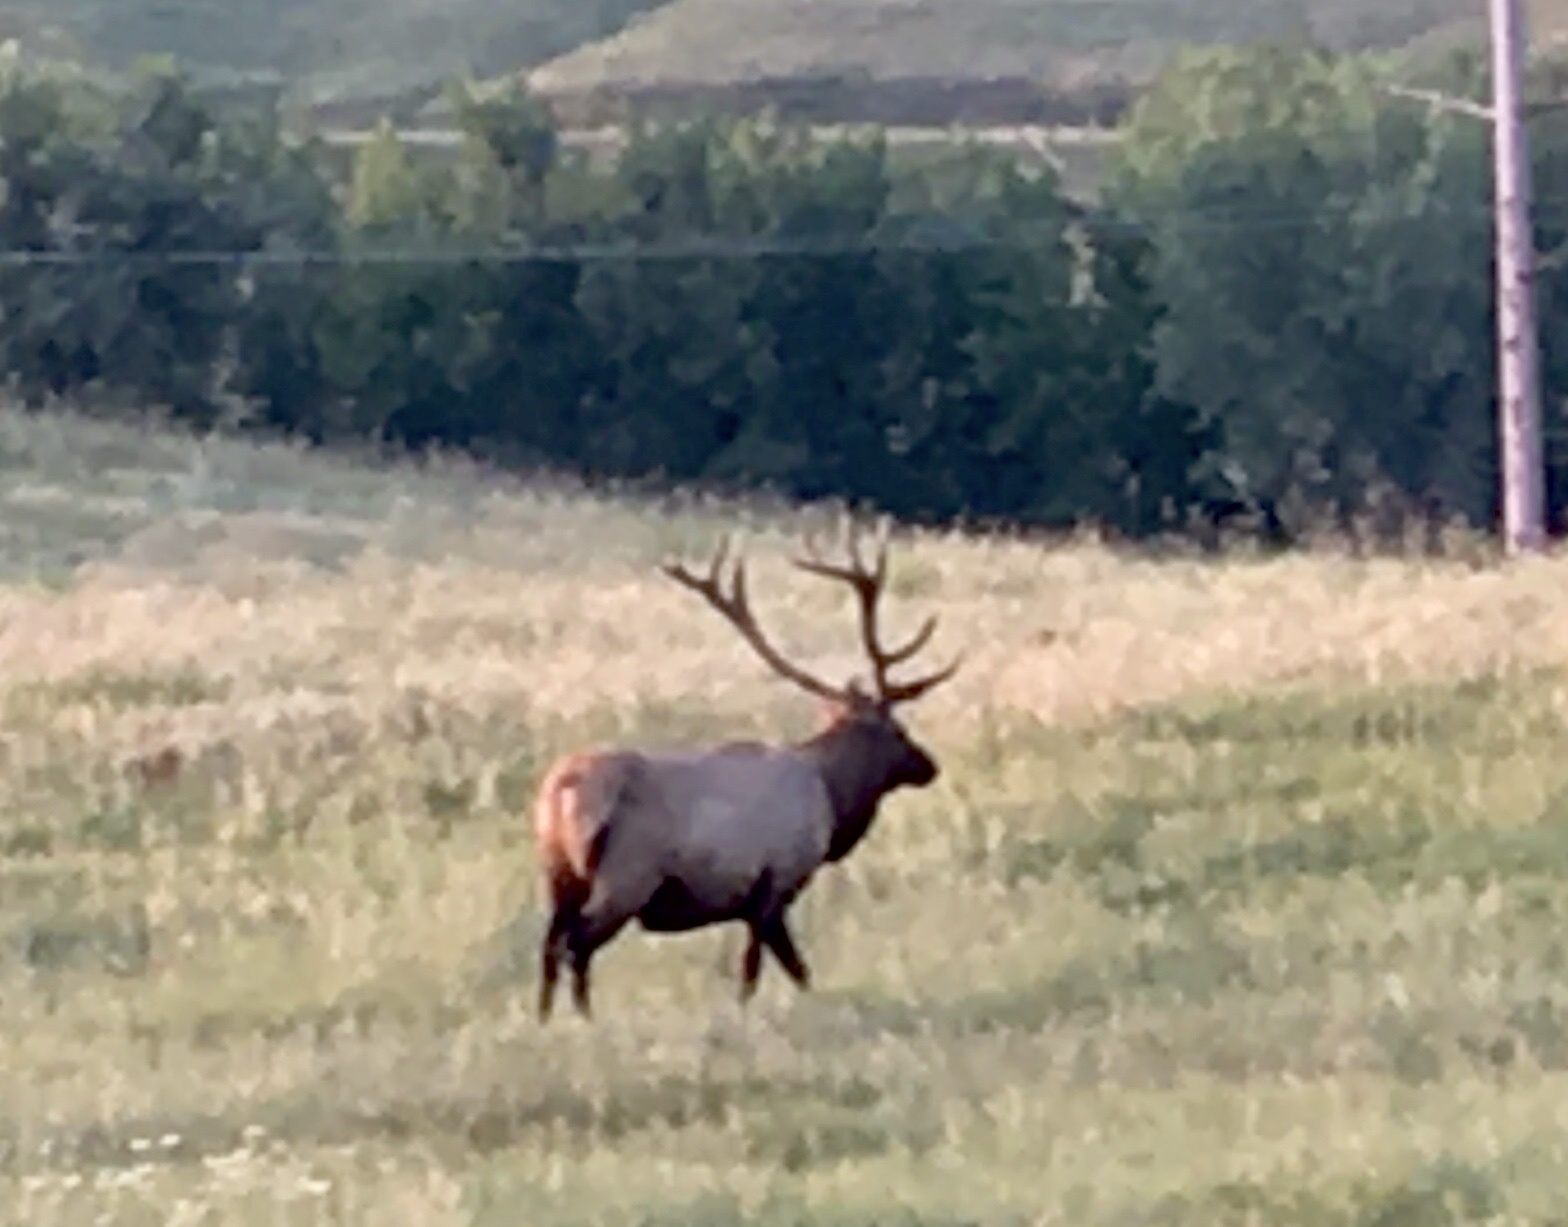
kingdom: Animalia
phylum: Chordata
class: Mammalia
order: Artiodactyla
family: Cervidae
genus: Cervus
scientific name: Cervus elaphus
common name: Red deer
